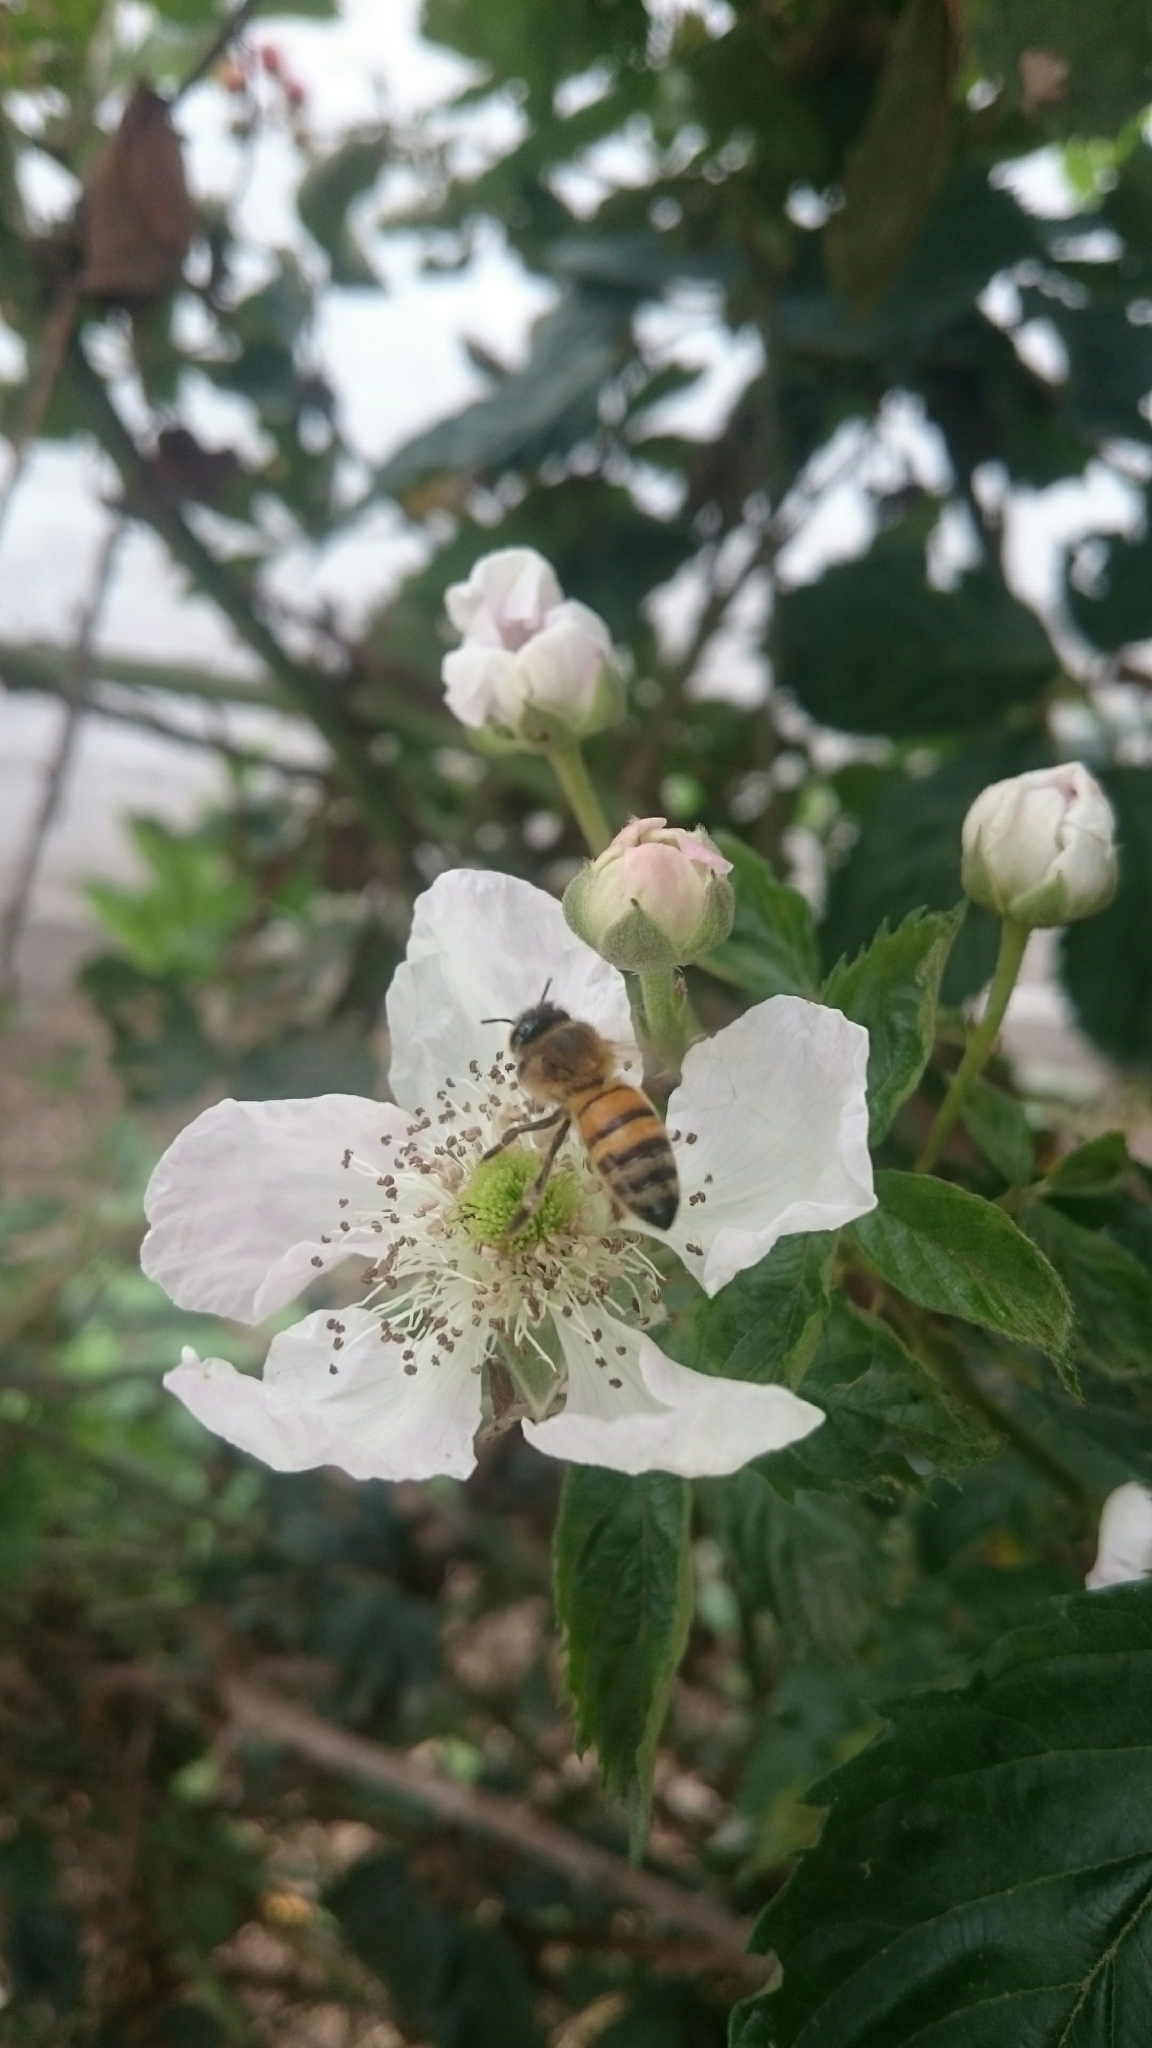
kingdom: Animalia
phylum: Arthropoda
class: Insecta
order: Hymenoptera
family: Apidae
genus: Apis
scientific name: Apis mellifera
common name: Honey bee
